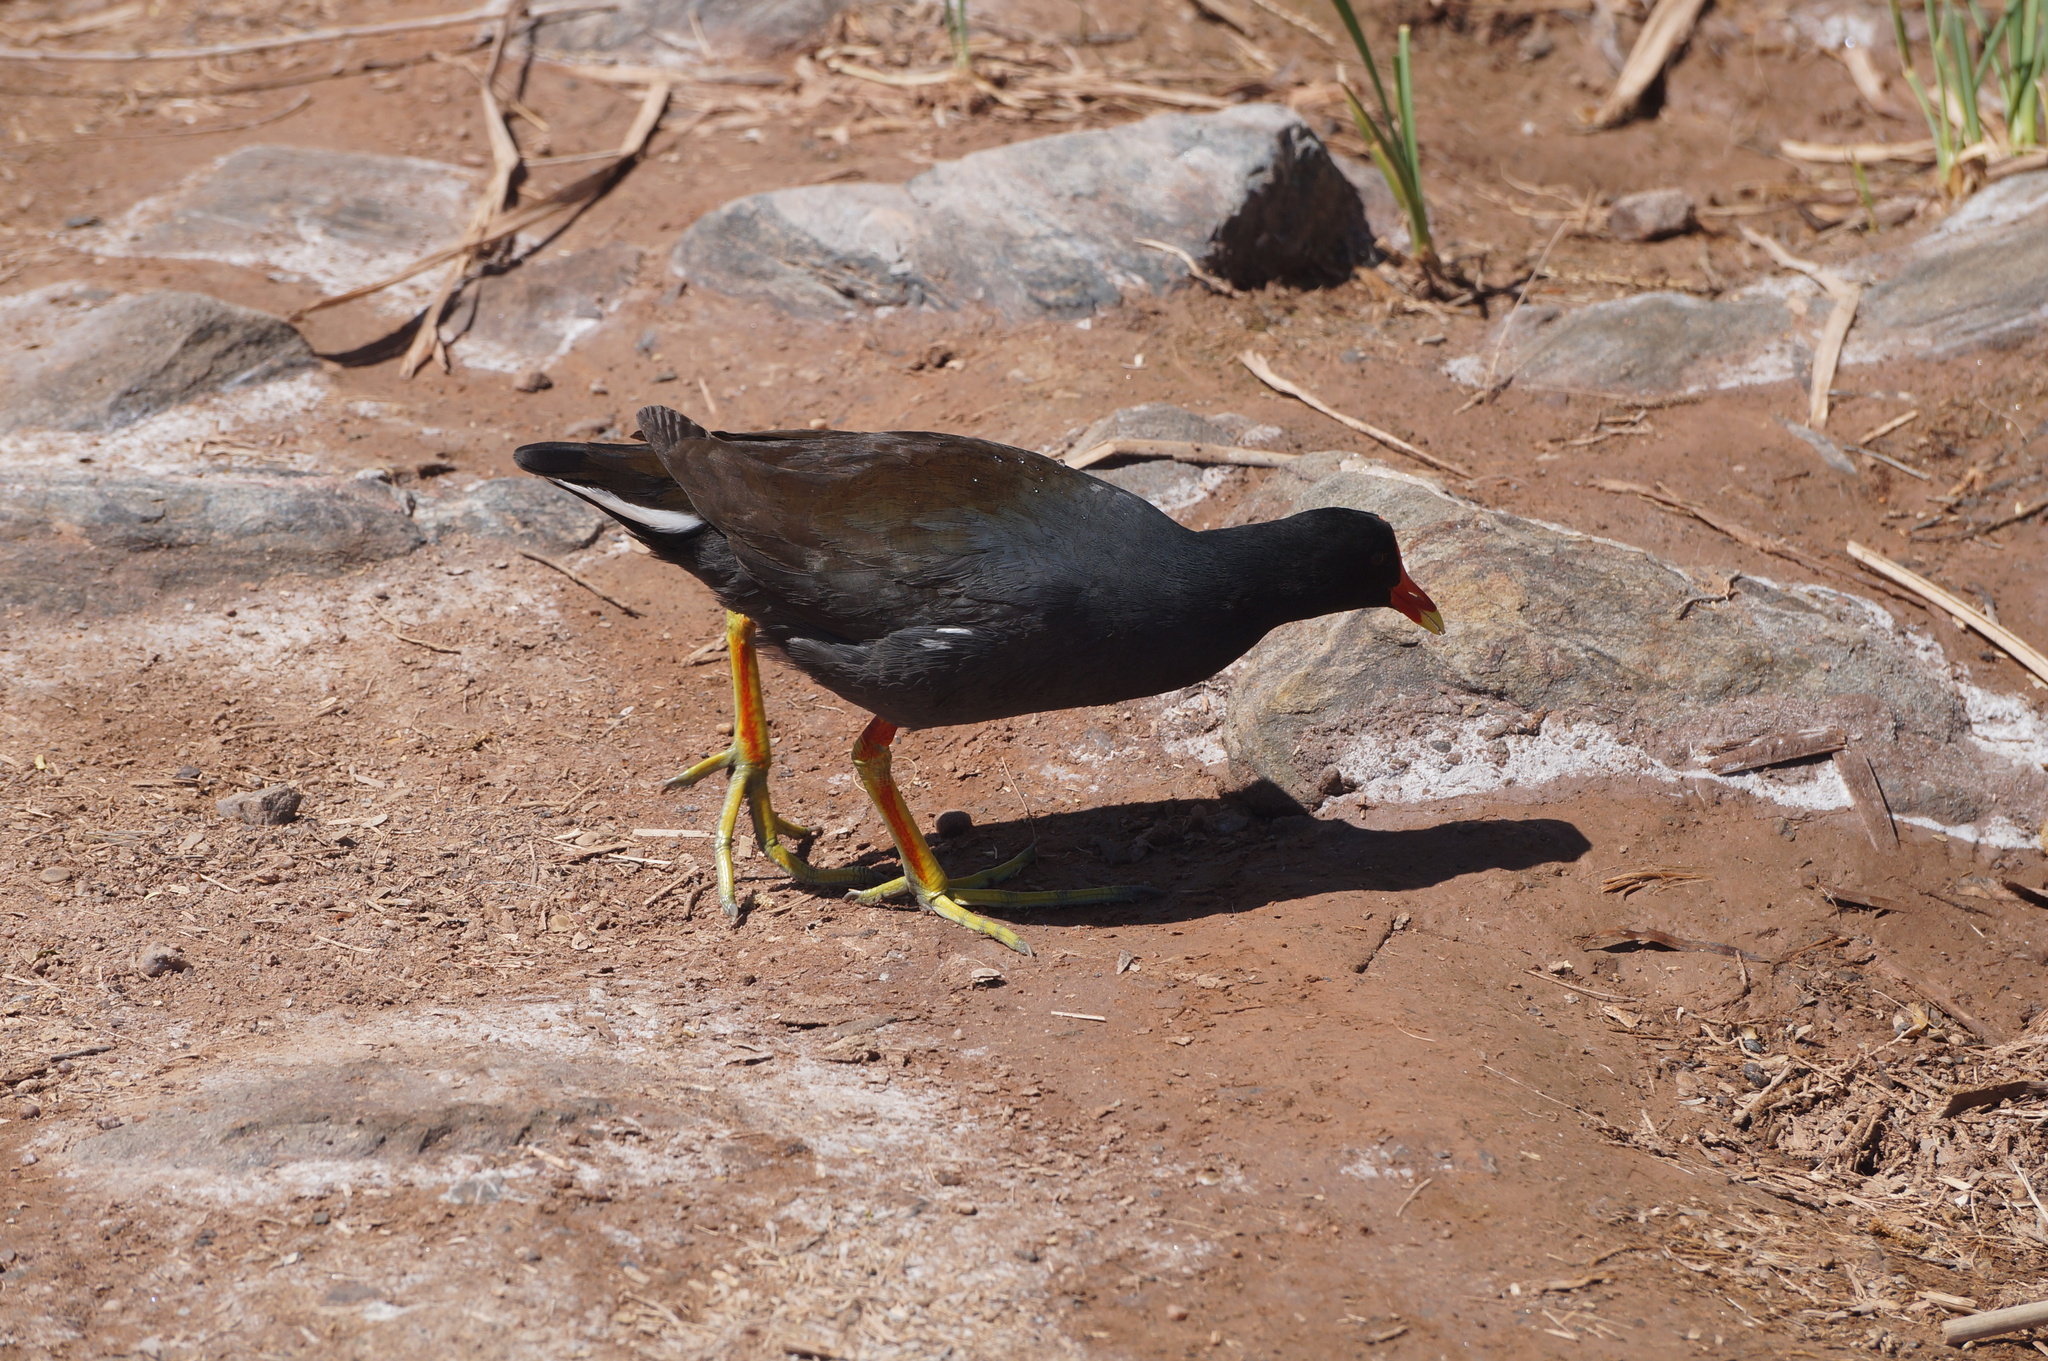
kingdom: Animalia
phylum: Chordata
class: Aves
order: Gruiformes
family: Rallidae
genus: Gallinula
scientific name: Gallinula chloropus
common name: Common moorhen
